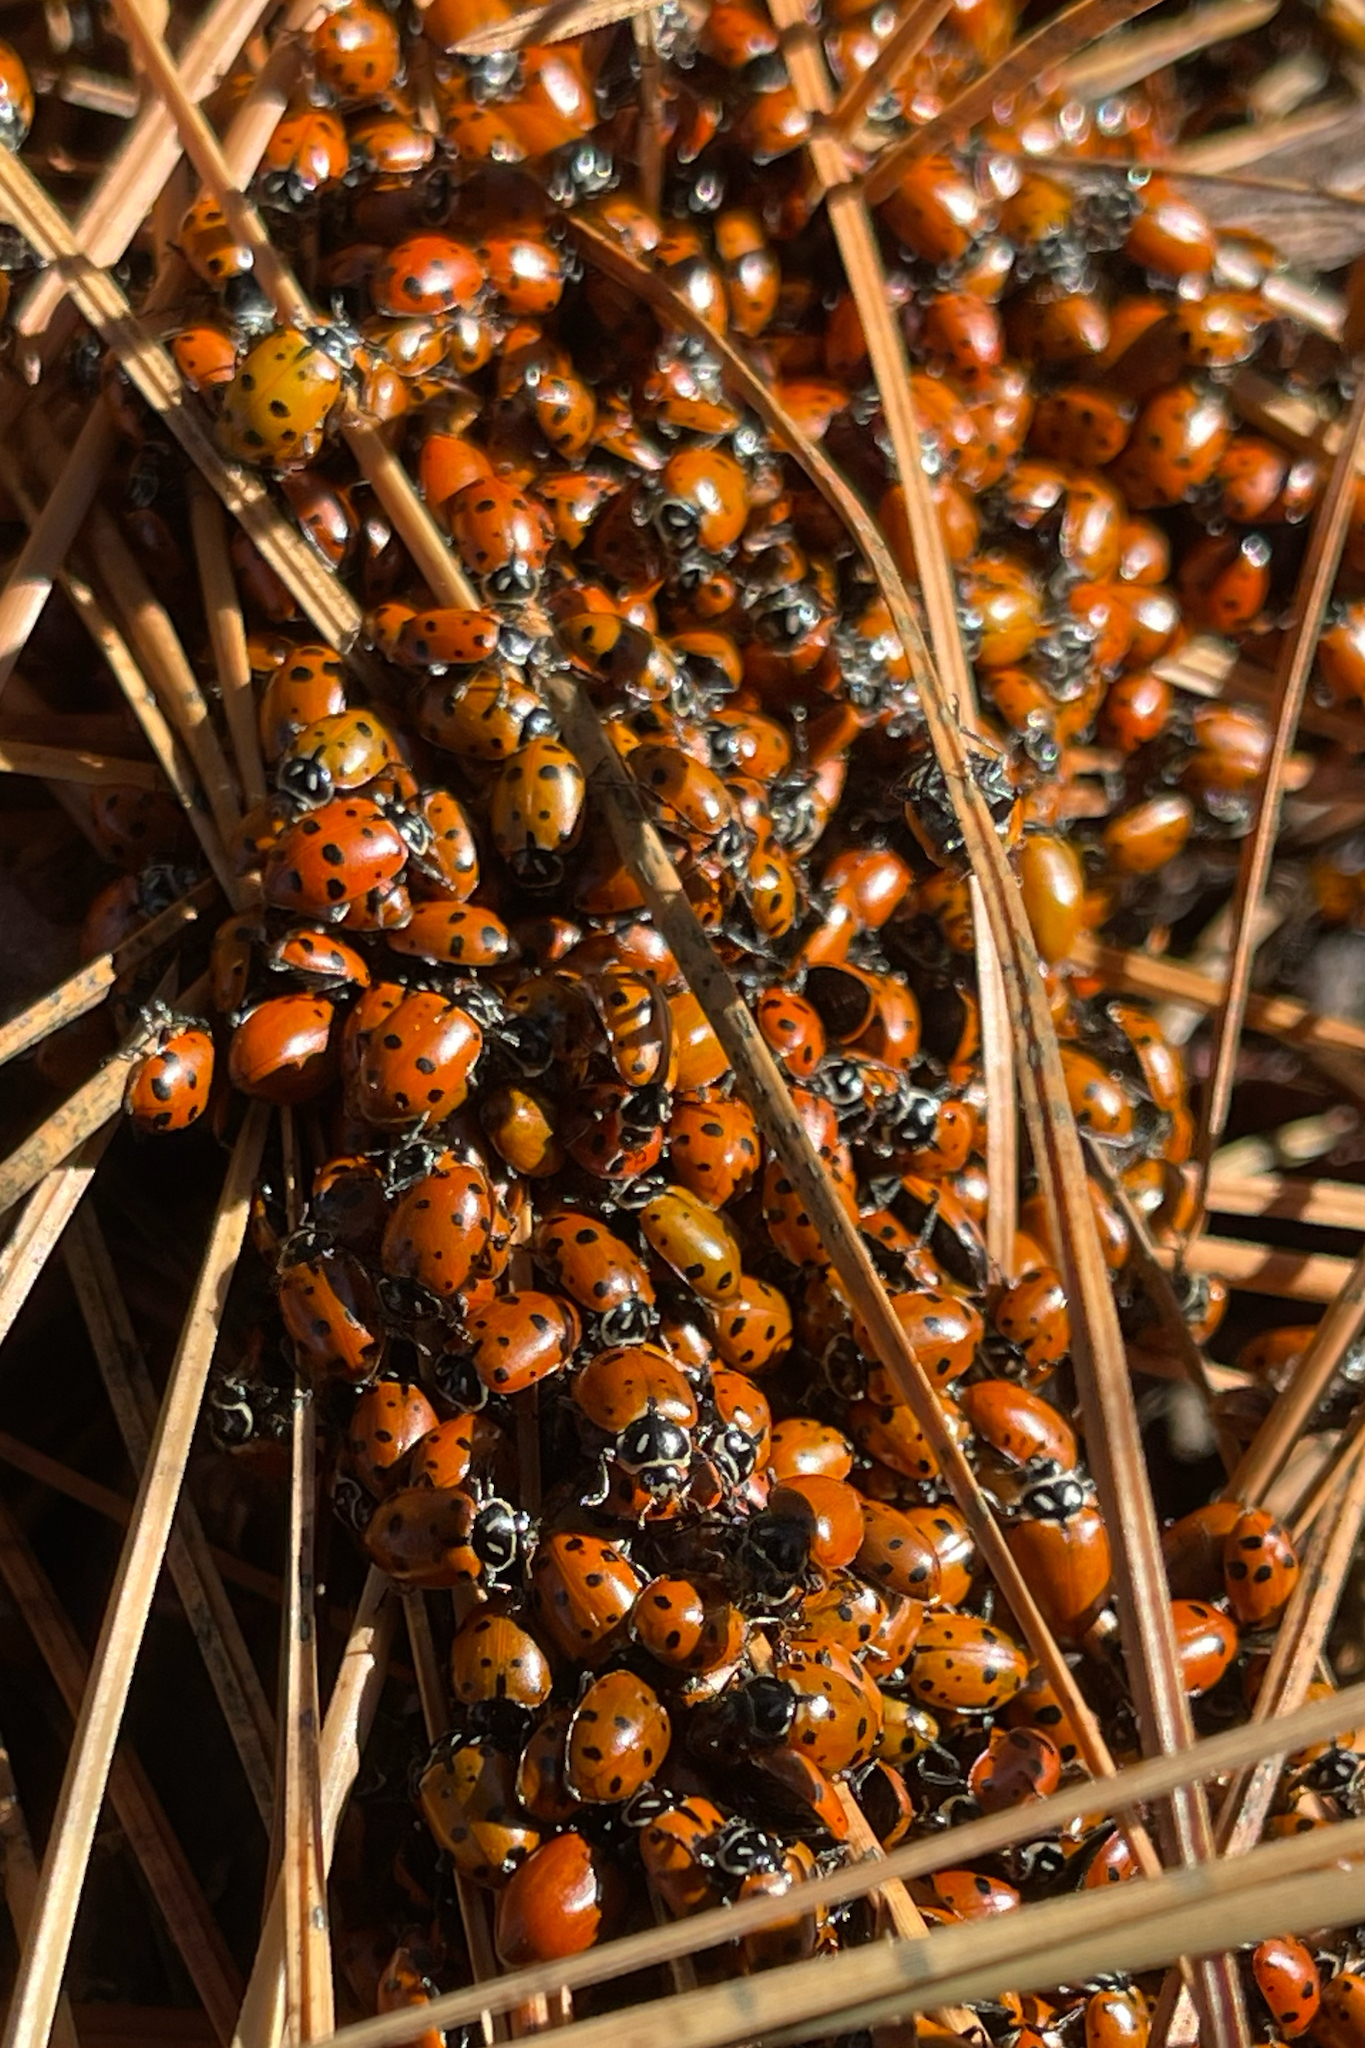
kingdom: Animalia
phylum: Arthropoda
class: Insecta
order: Coleoptera
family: Coccinellidae
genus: Hippodamia
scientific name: Hippodamia convergens
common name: Convergent lady beetle
